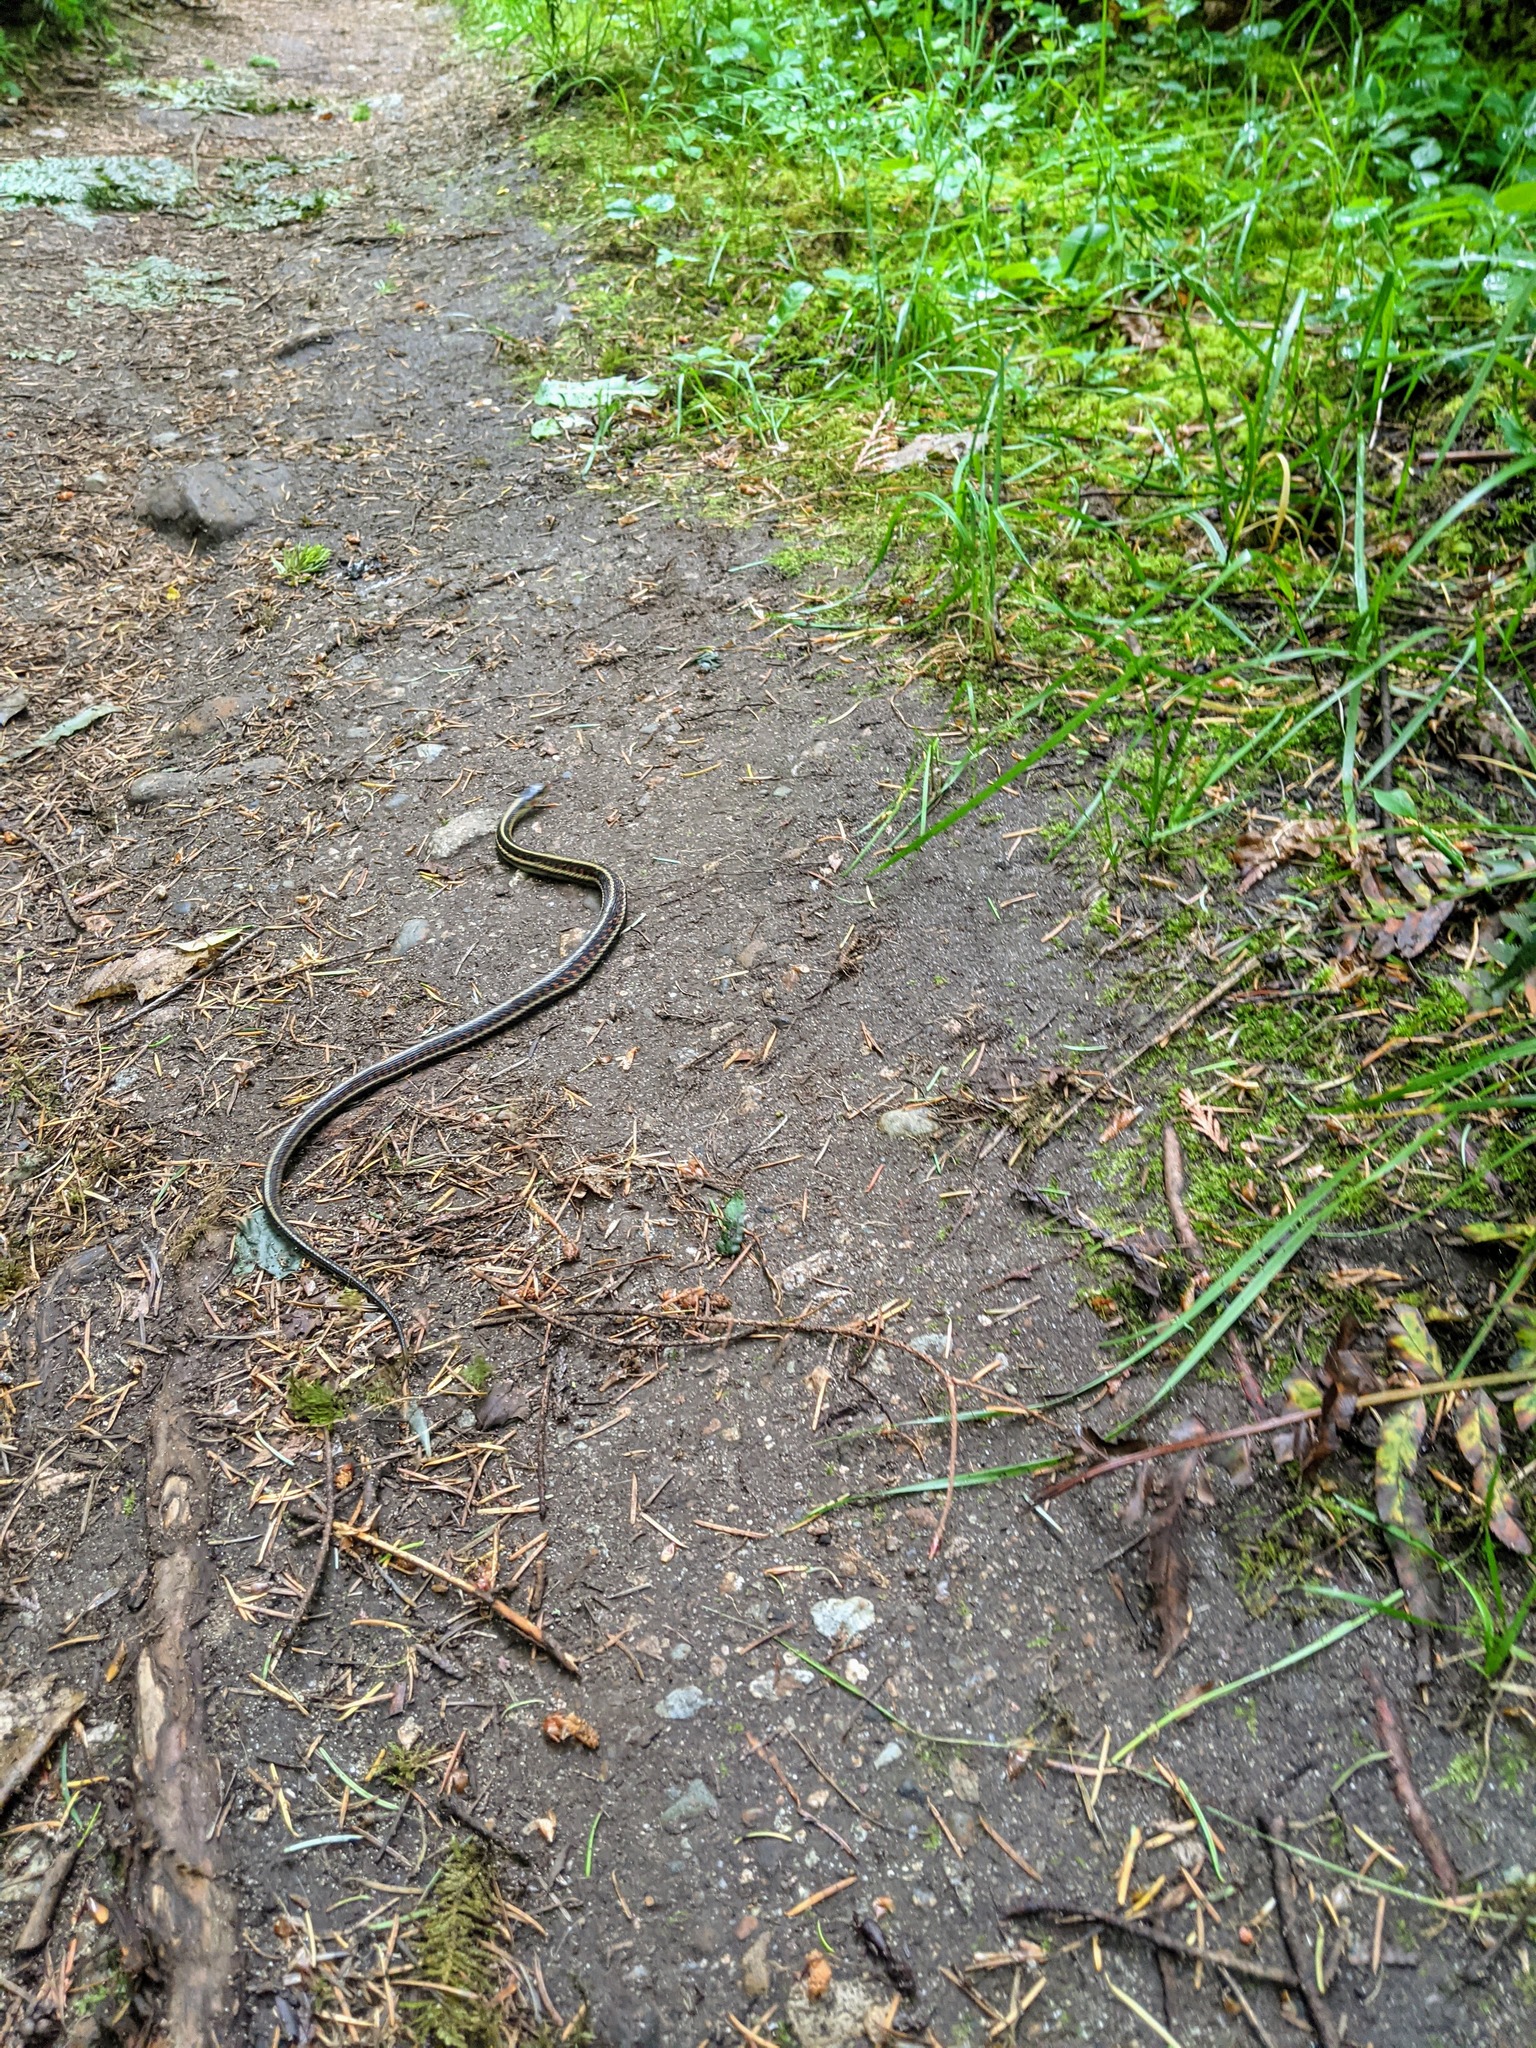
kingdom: Animalia
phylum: Chordata
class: Squamata
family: Colubridae
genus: Thamnophis
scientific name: Thamnophis sirtalis
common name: Common garter snake
